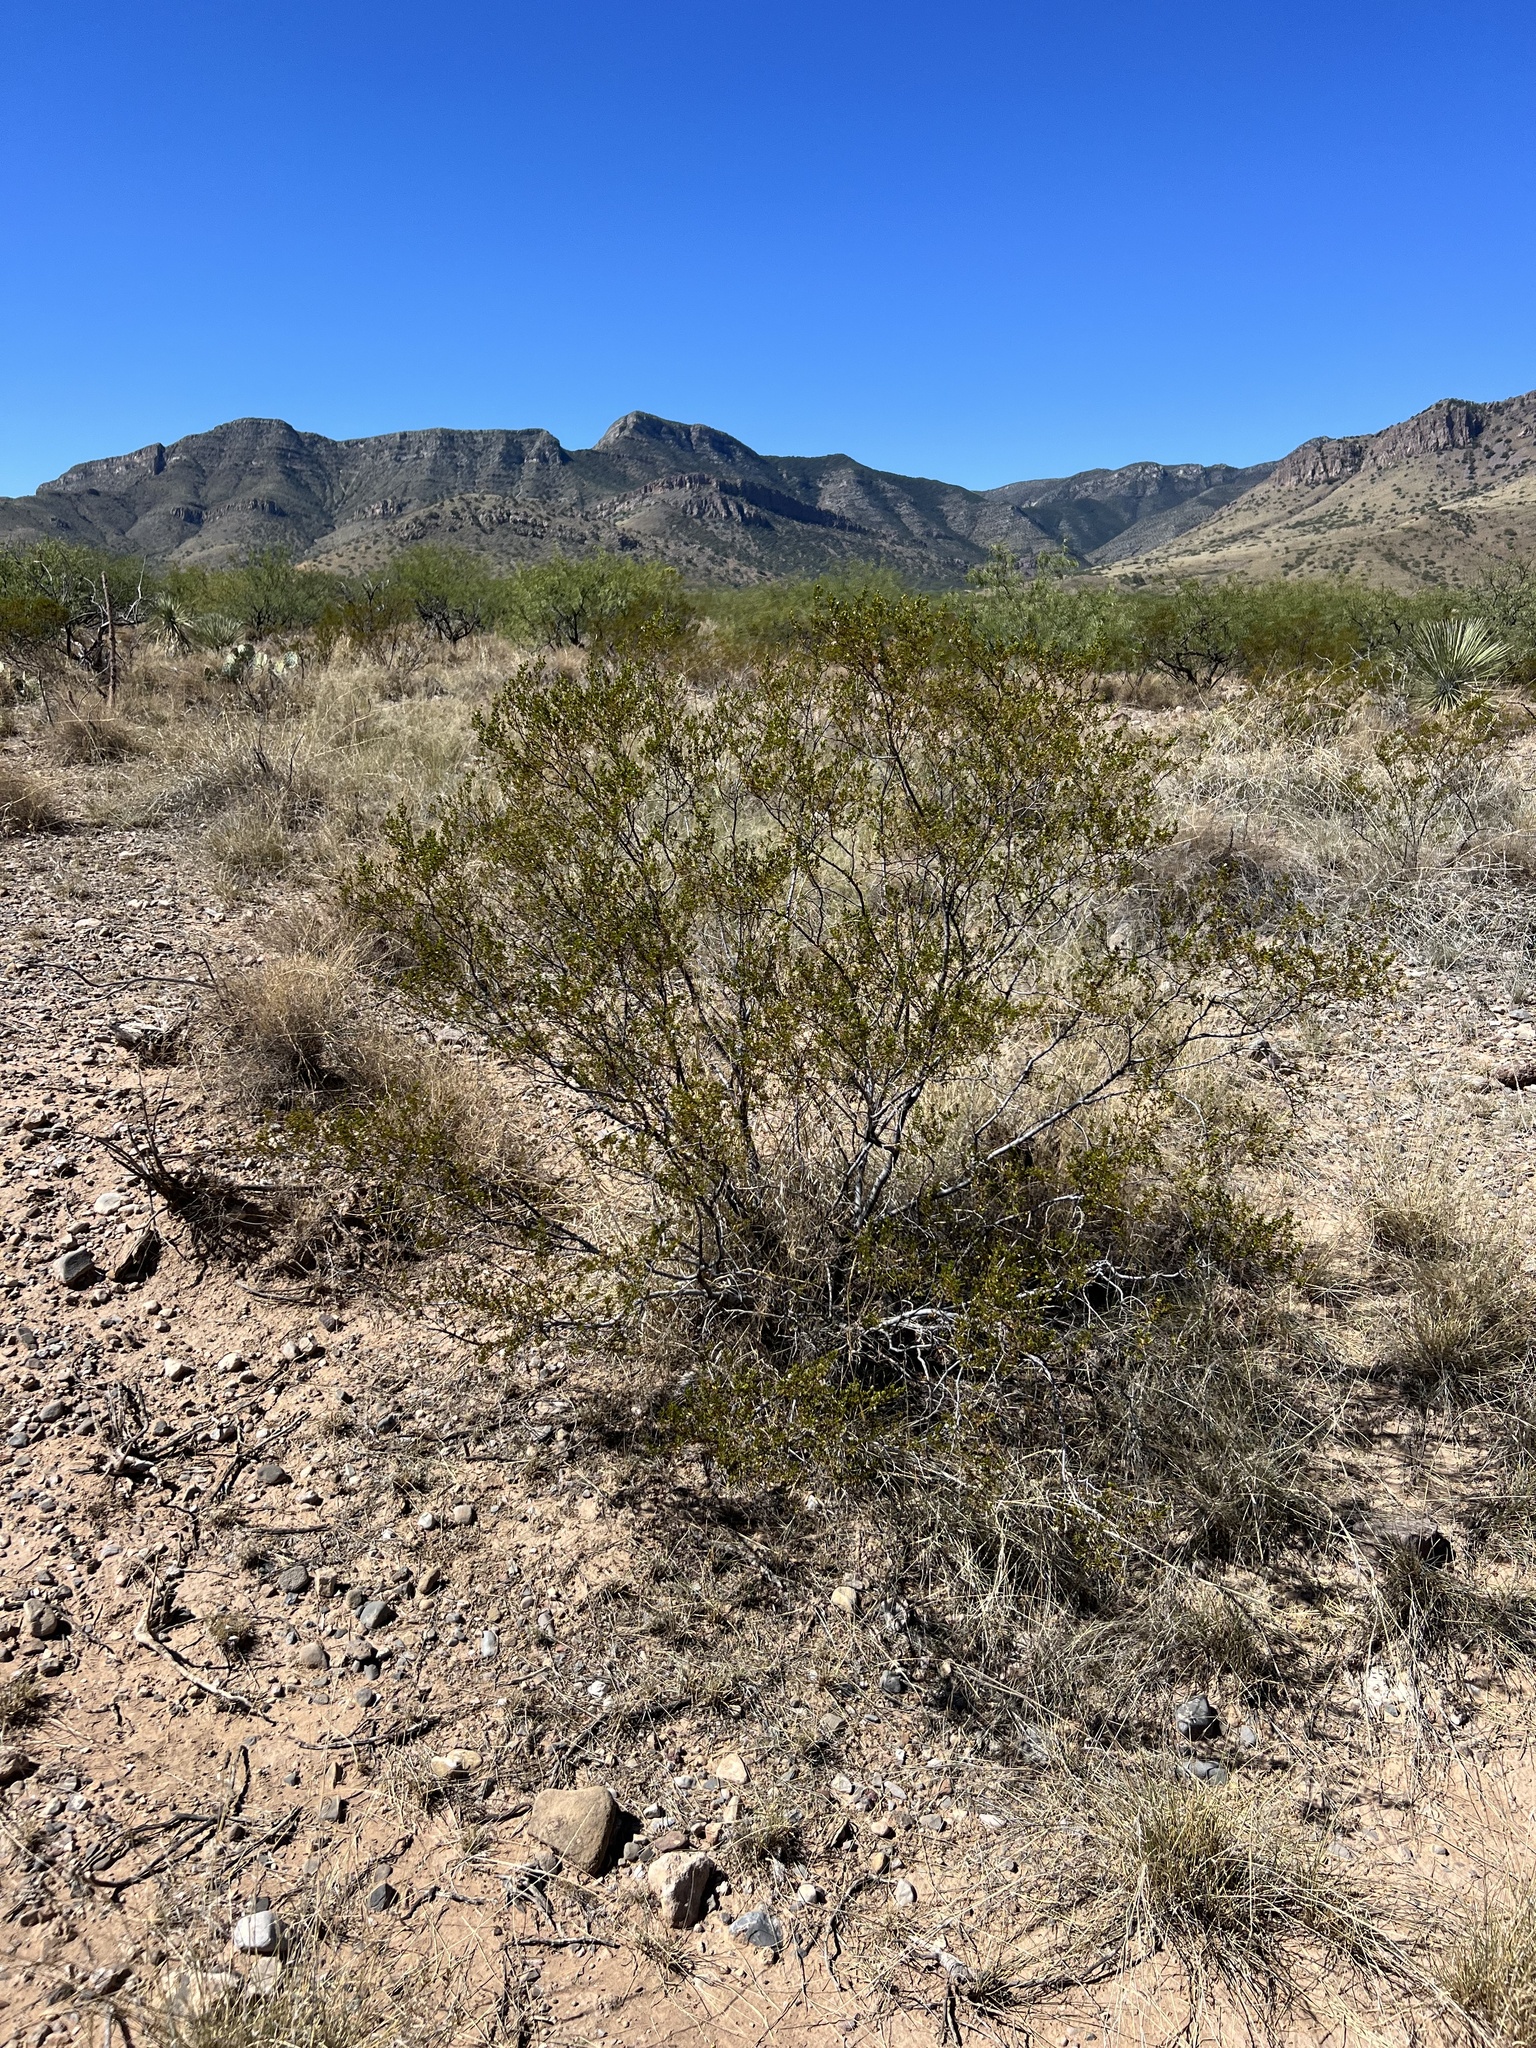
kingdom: Plantae
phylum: Tracheophyta
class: Magnoliopsida
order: Zygophyllales
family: Zygophyllaceae
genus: Larrea
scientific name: Larrea tridentata
